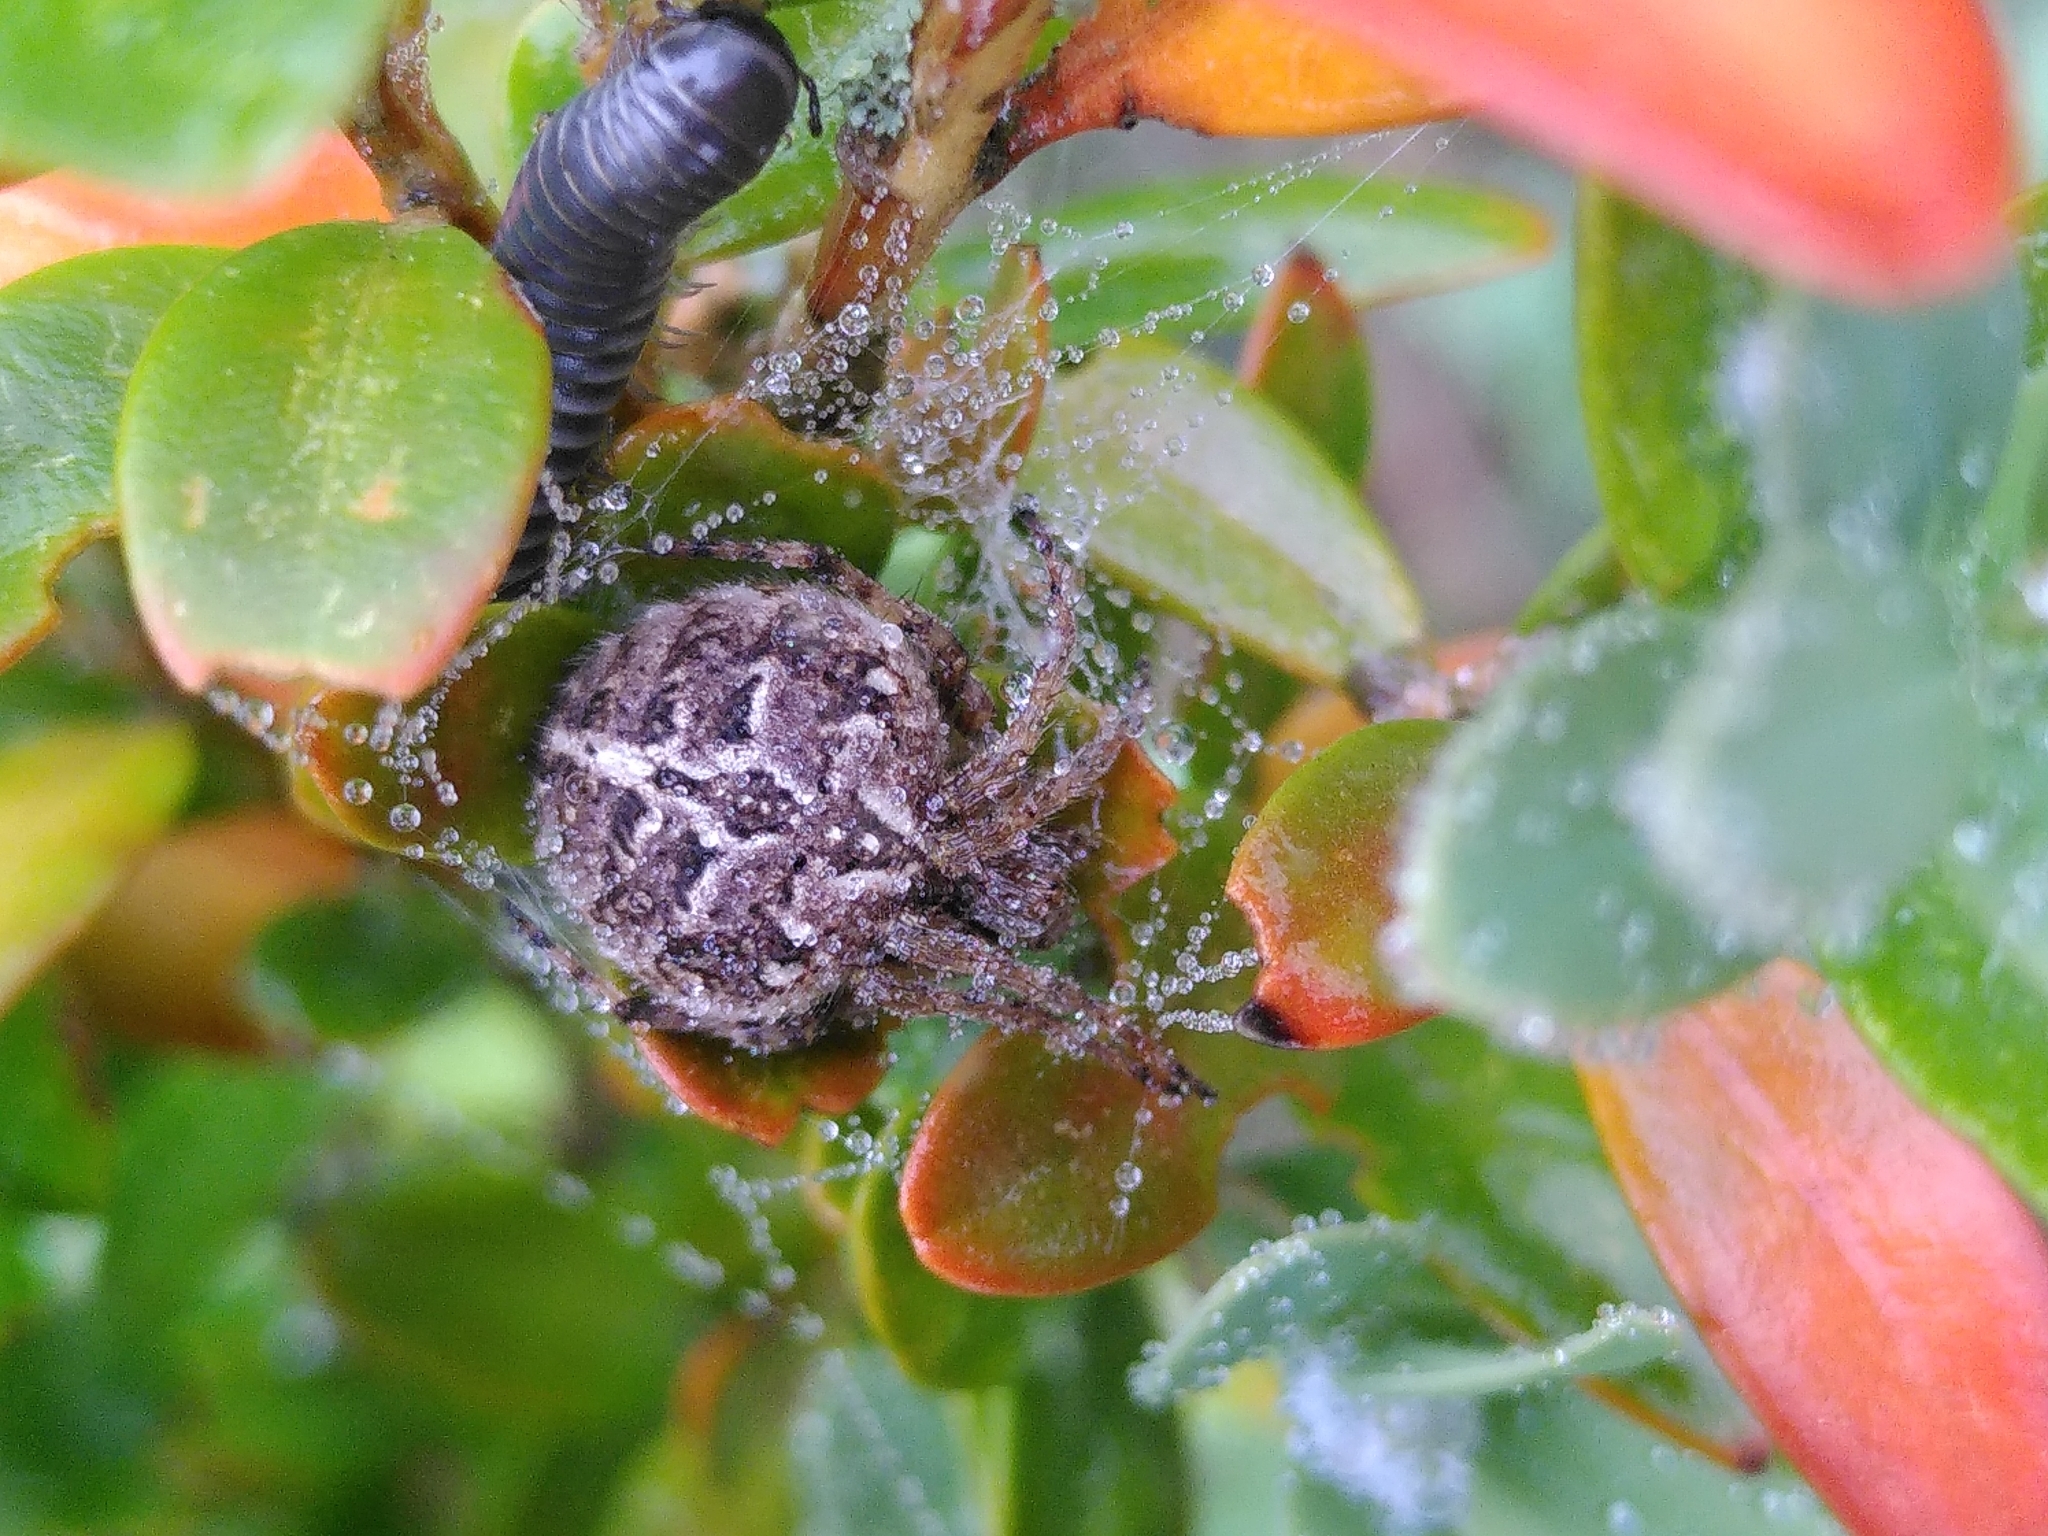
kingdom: Animalia
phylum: Arthropoda
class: Arachnida
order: Araneae
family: Araneidae
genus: Agalenatea
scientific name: Agalenatea redii
